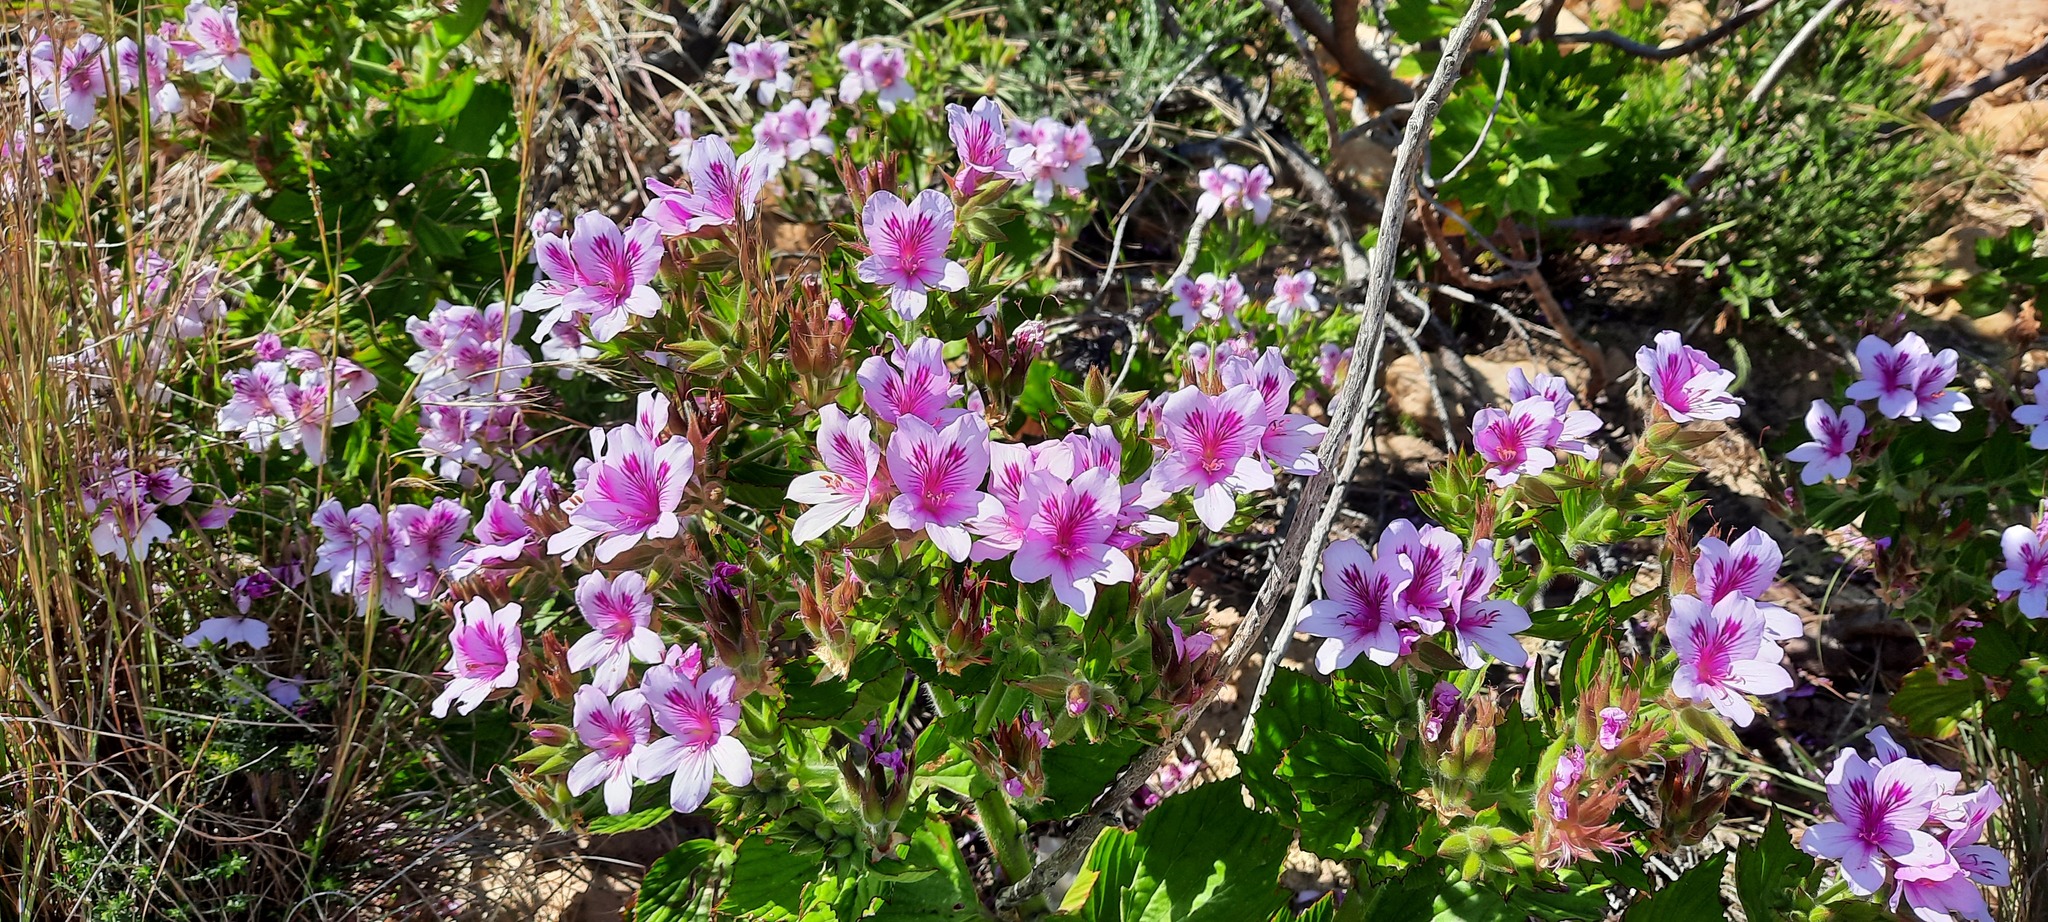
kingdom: Plantae
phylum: Tracheophyta
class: Magnoliopsida
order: Geraniales
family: Geraniaceae
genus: Pelargonium
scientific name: Pelargonium cucullatum
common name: Tree pelargonium
